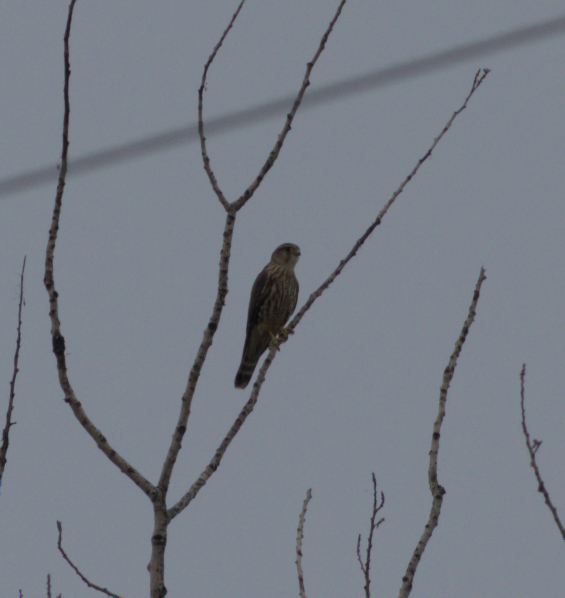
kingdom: Animalia
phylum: Chordata
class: Aves
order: Falconiformes
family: Falconidae
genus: Falco
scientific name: Falco columbarius
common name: Merlin
